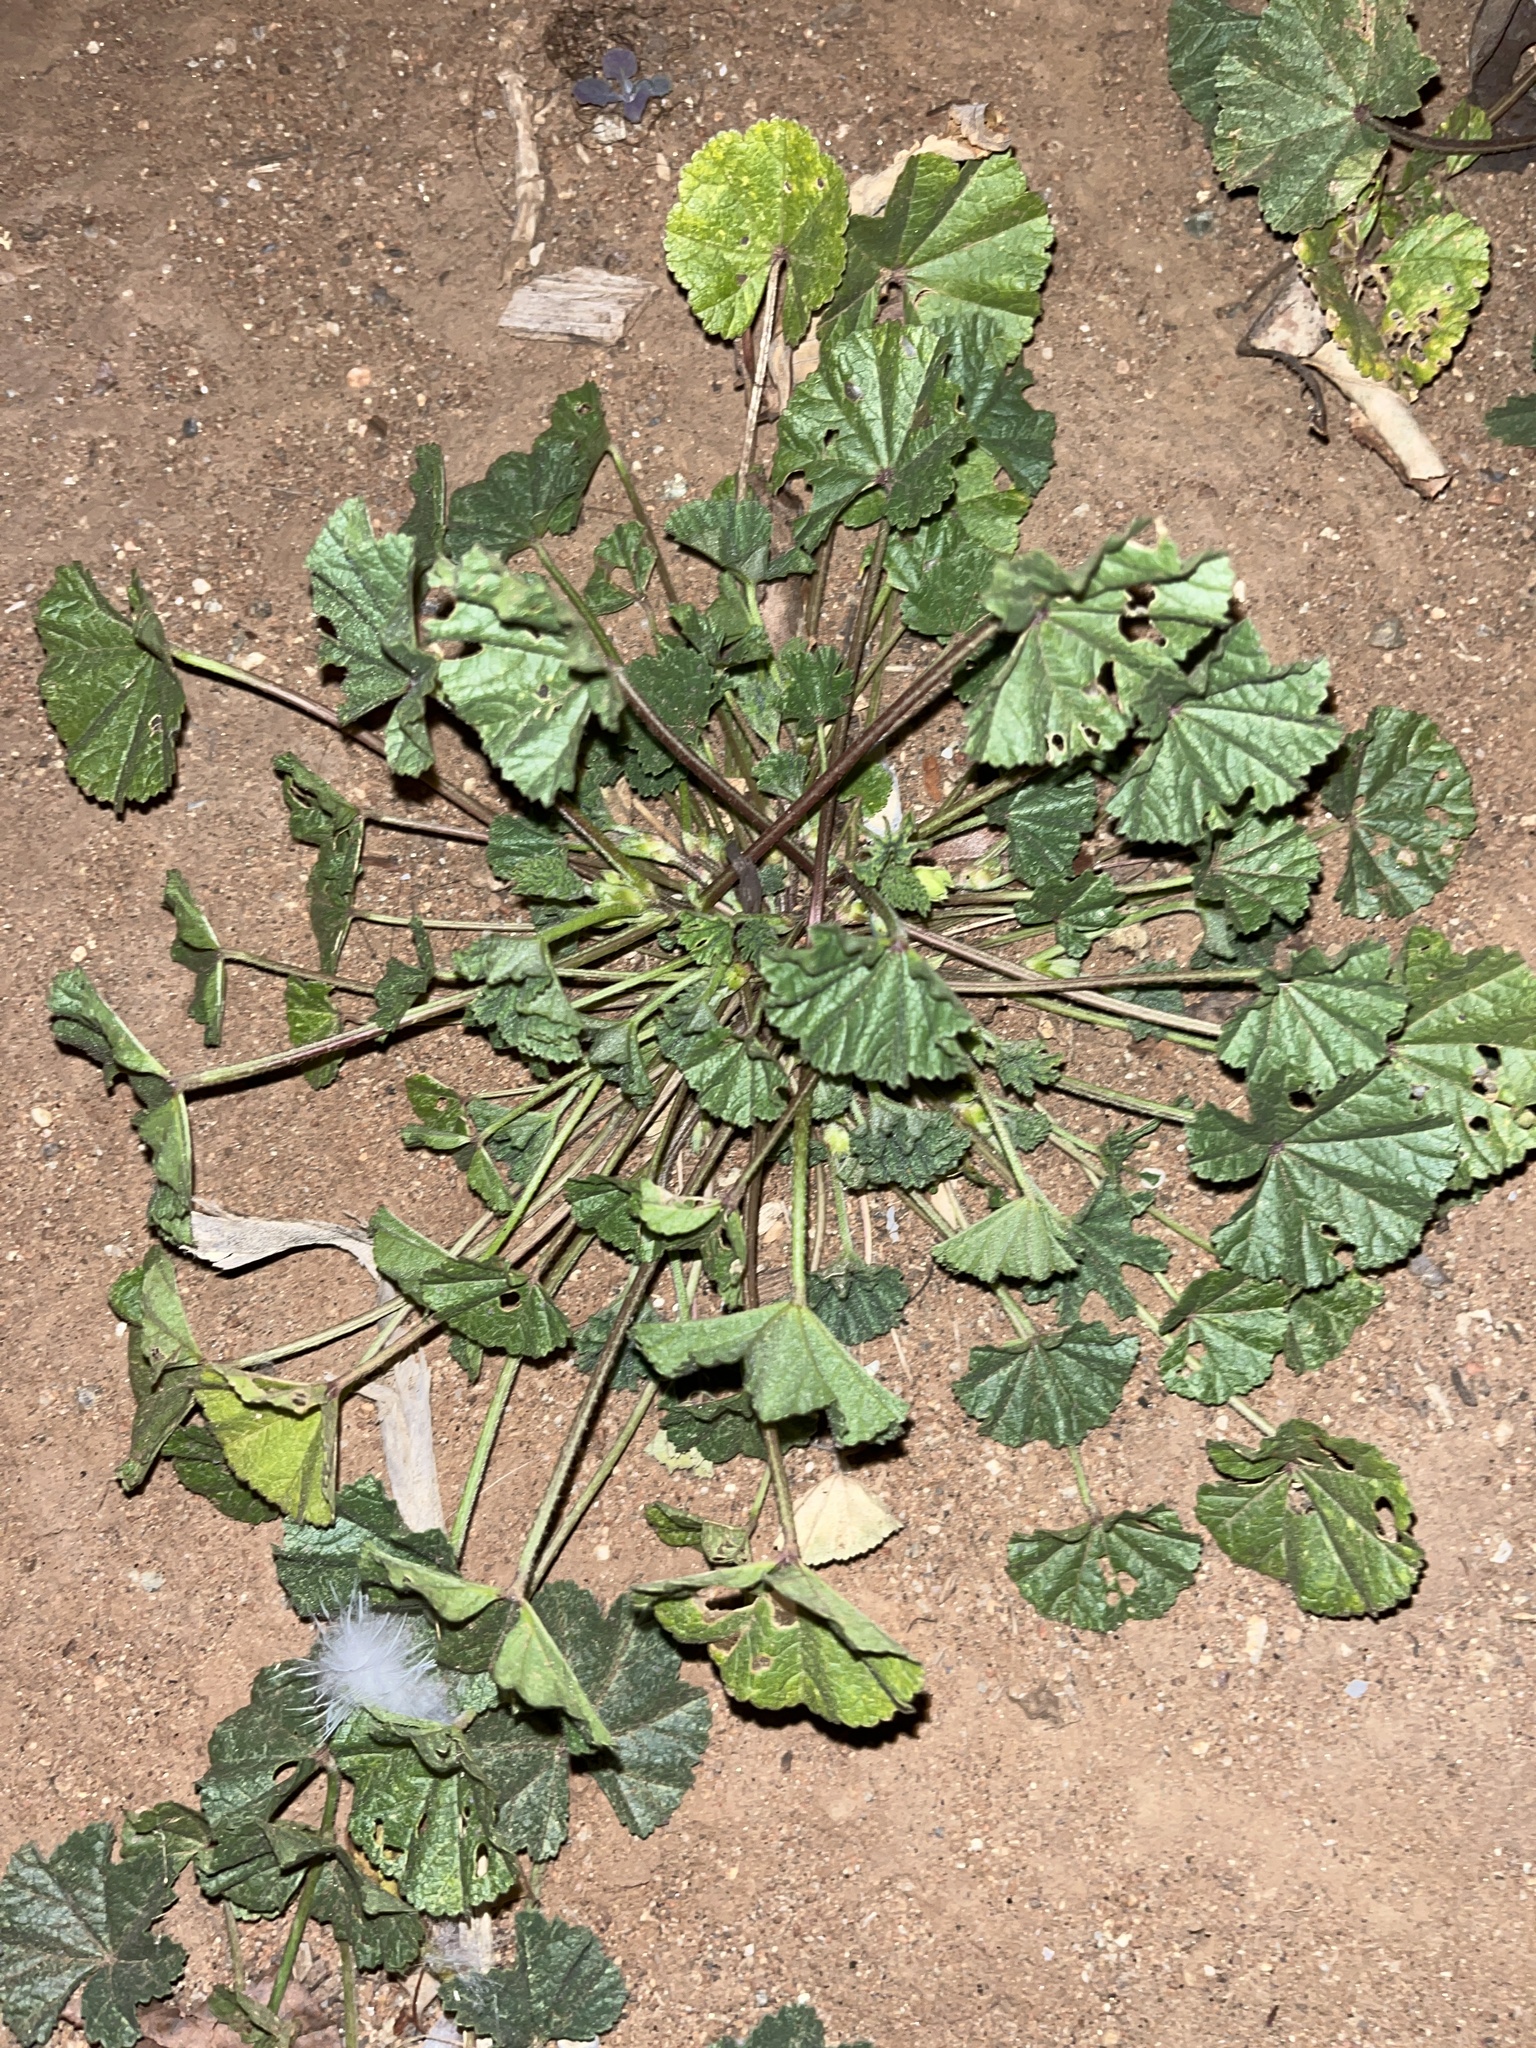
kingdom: Plantae
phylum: Tracheophyta
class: Magnoliopsida
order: Malvales
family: Malvaceae
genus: Malva
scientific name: Malva
